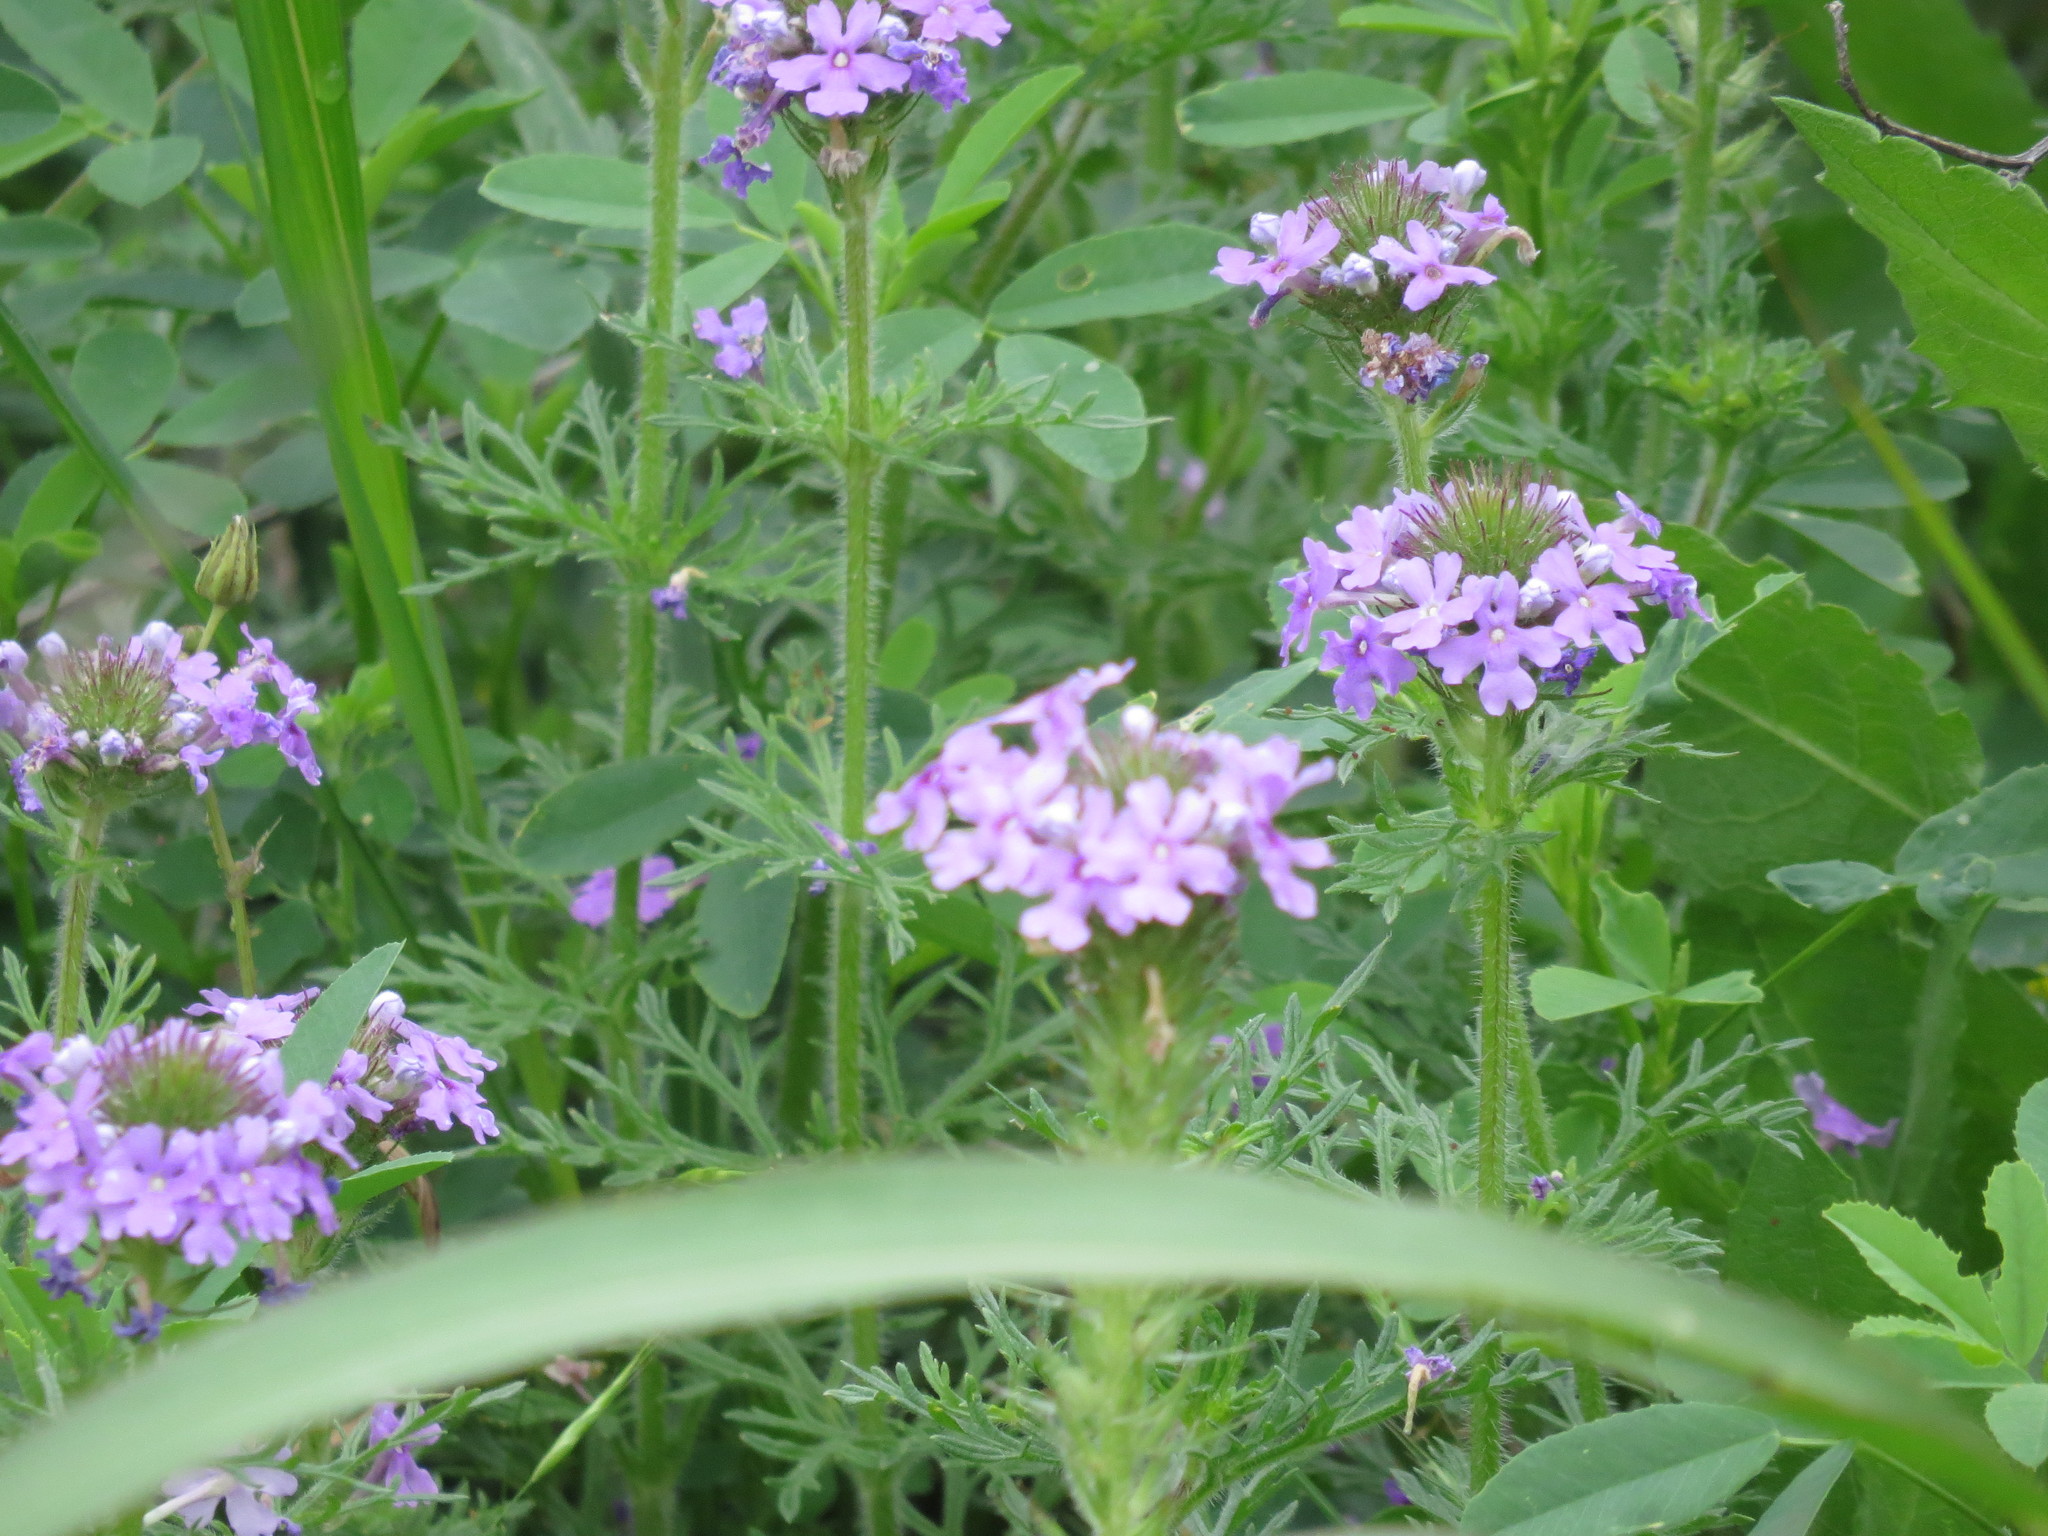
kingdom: Plantae
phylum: Tracheophyta
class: Magnoliopsida
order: Lamiales
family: Verbenaceae
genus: Verbena
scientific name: Verbena bipinnatifida
